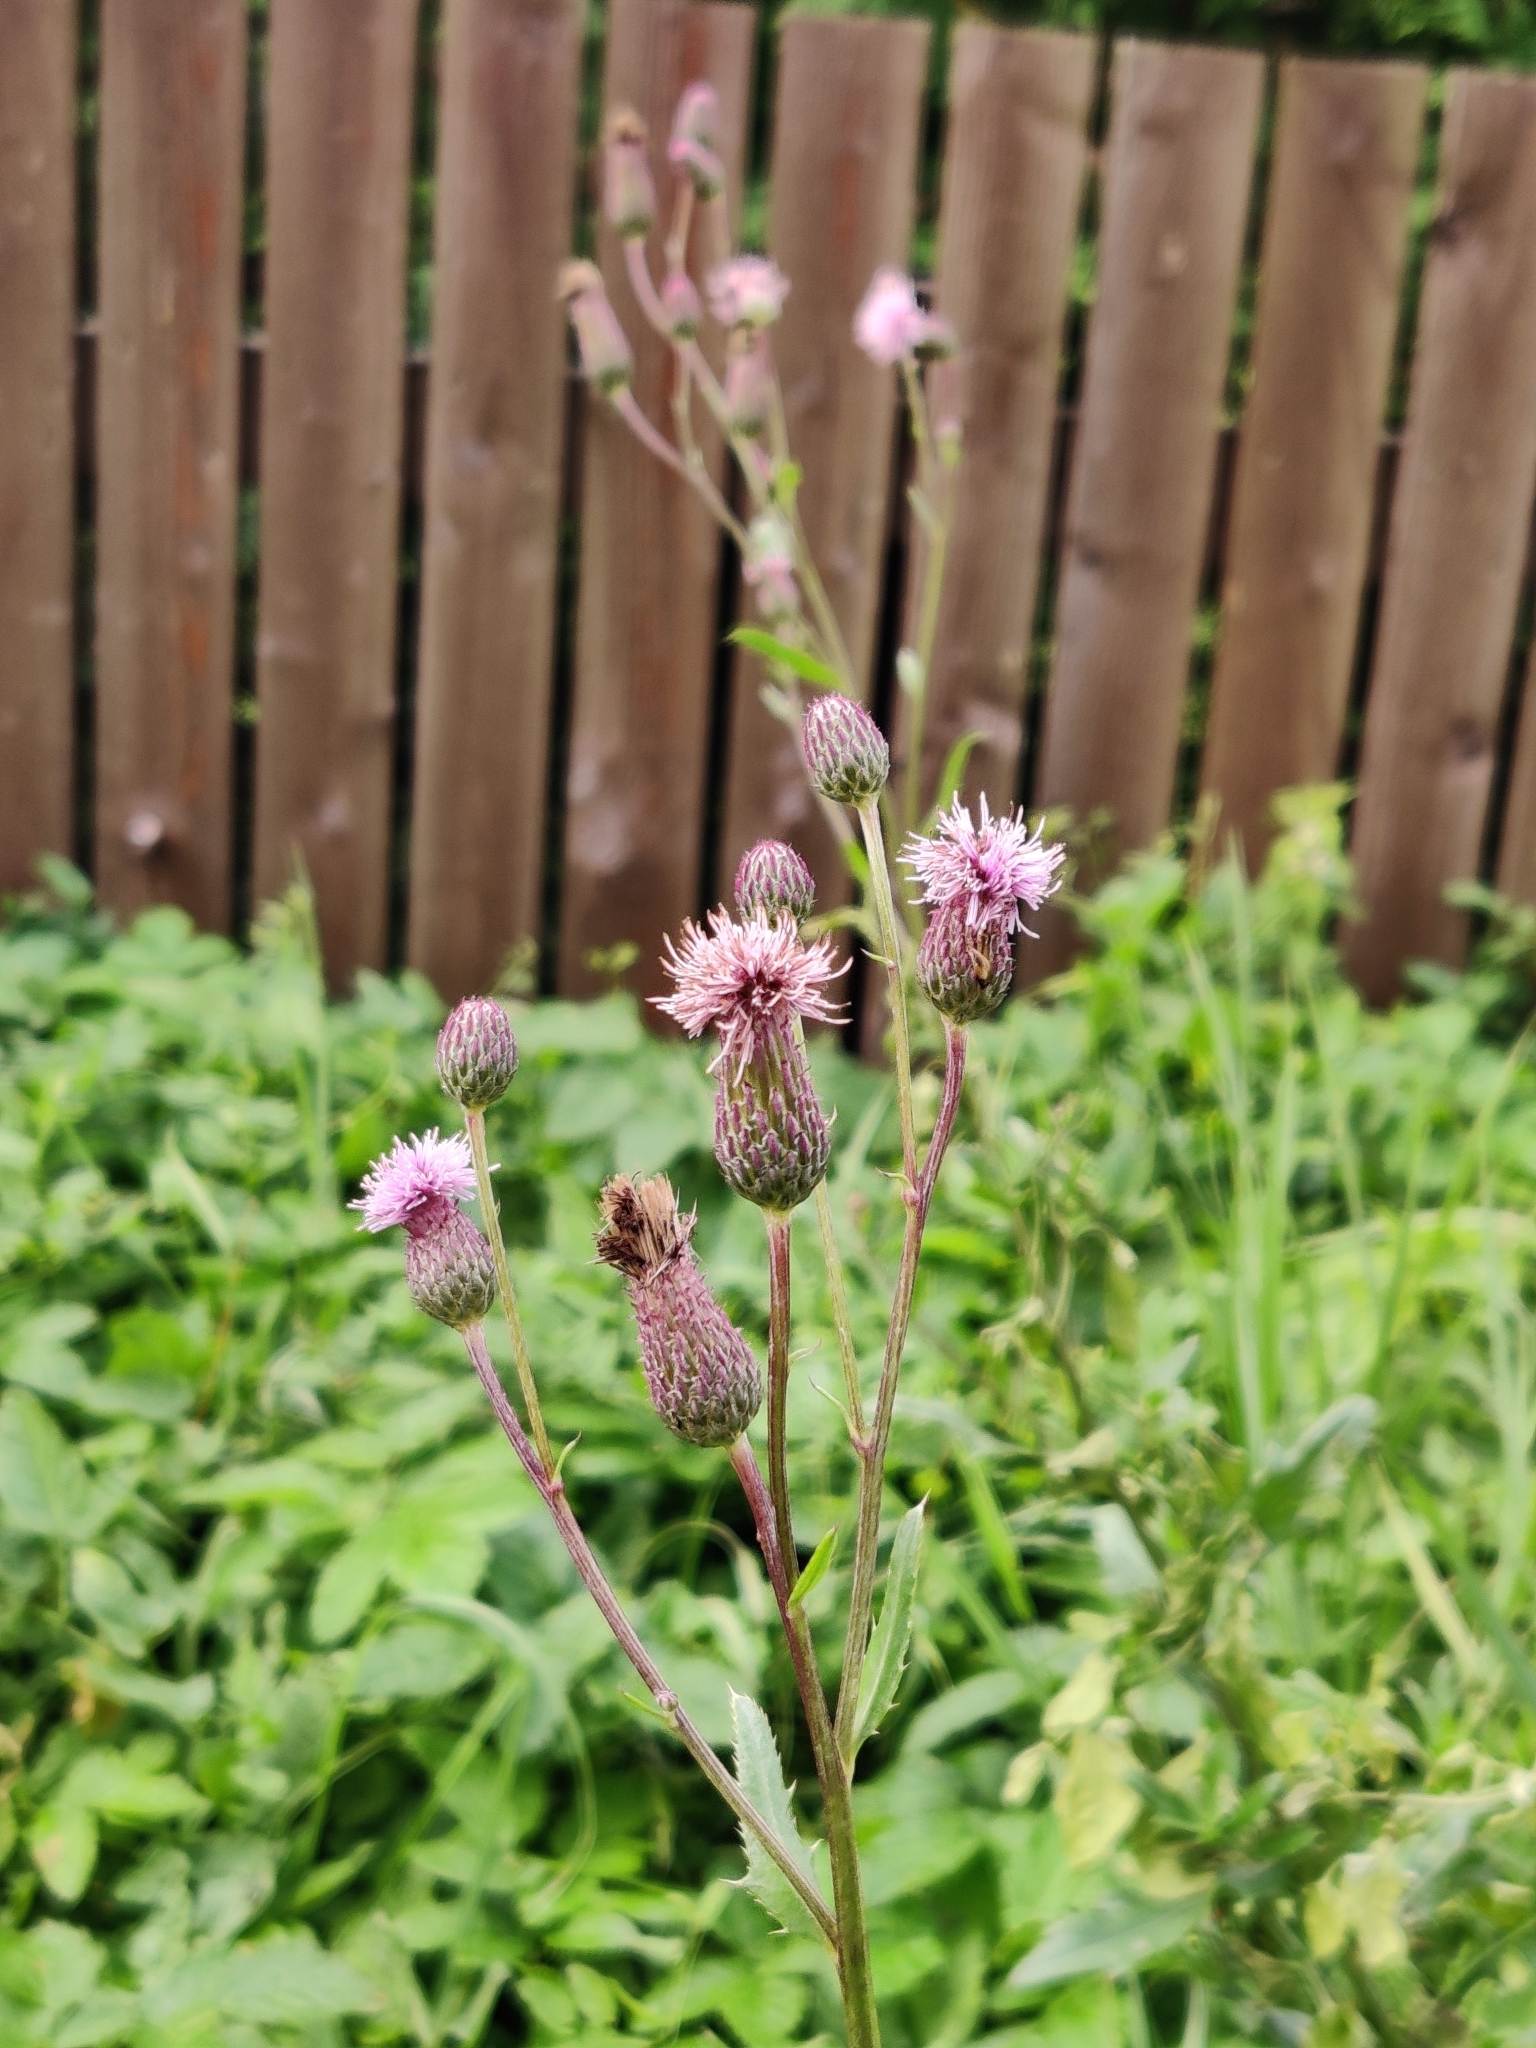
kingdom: Plantae
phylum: Tracheophyta
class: Magnoliopsida
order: Asterales
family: Asteraceae
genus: Cirsium
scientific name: Cirsium arvense
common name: Creeping thistle
